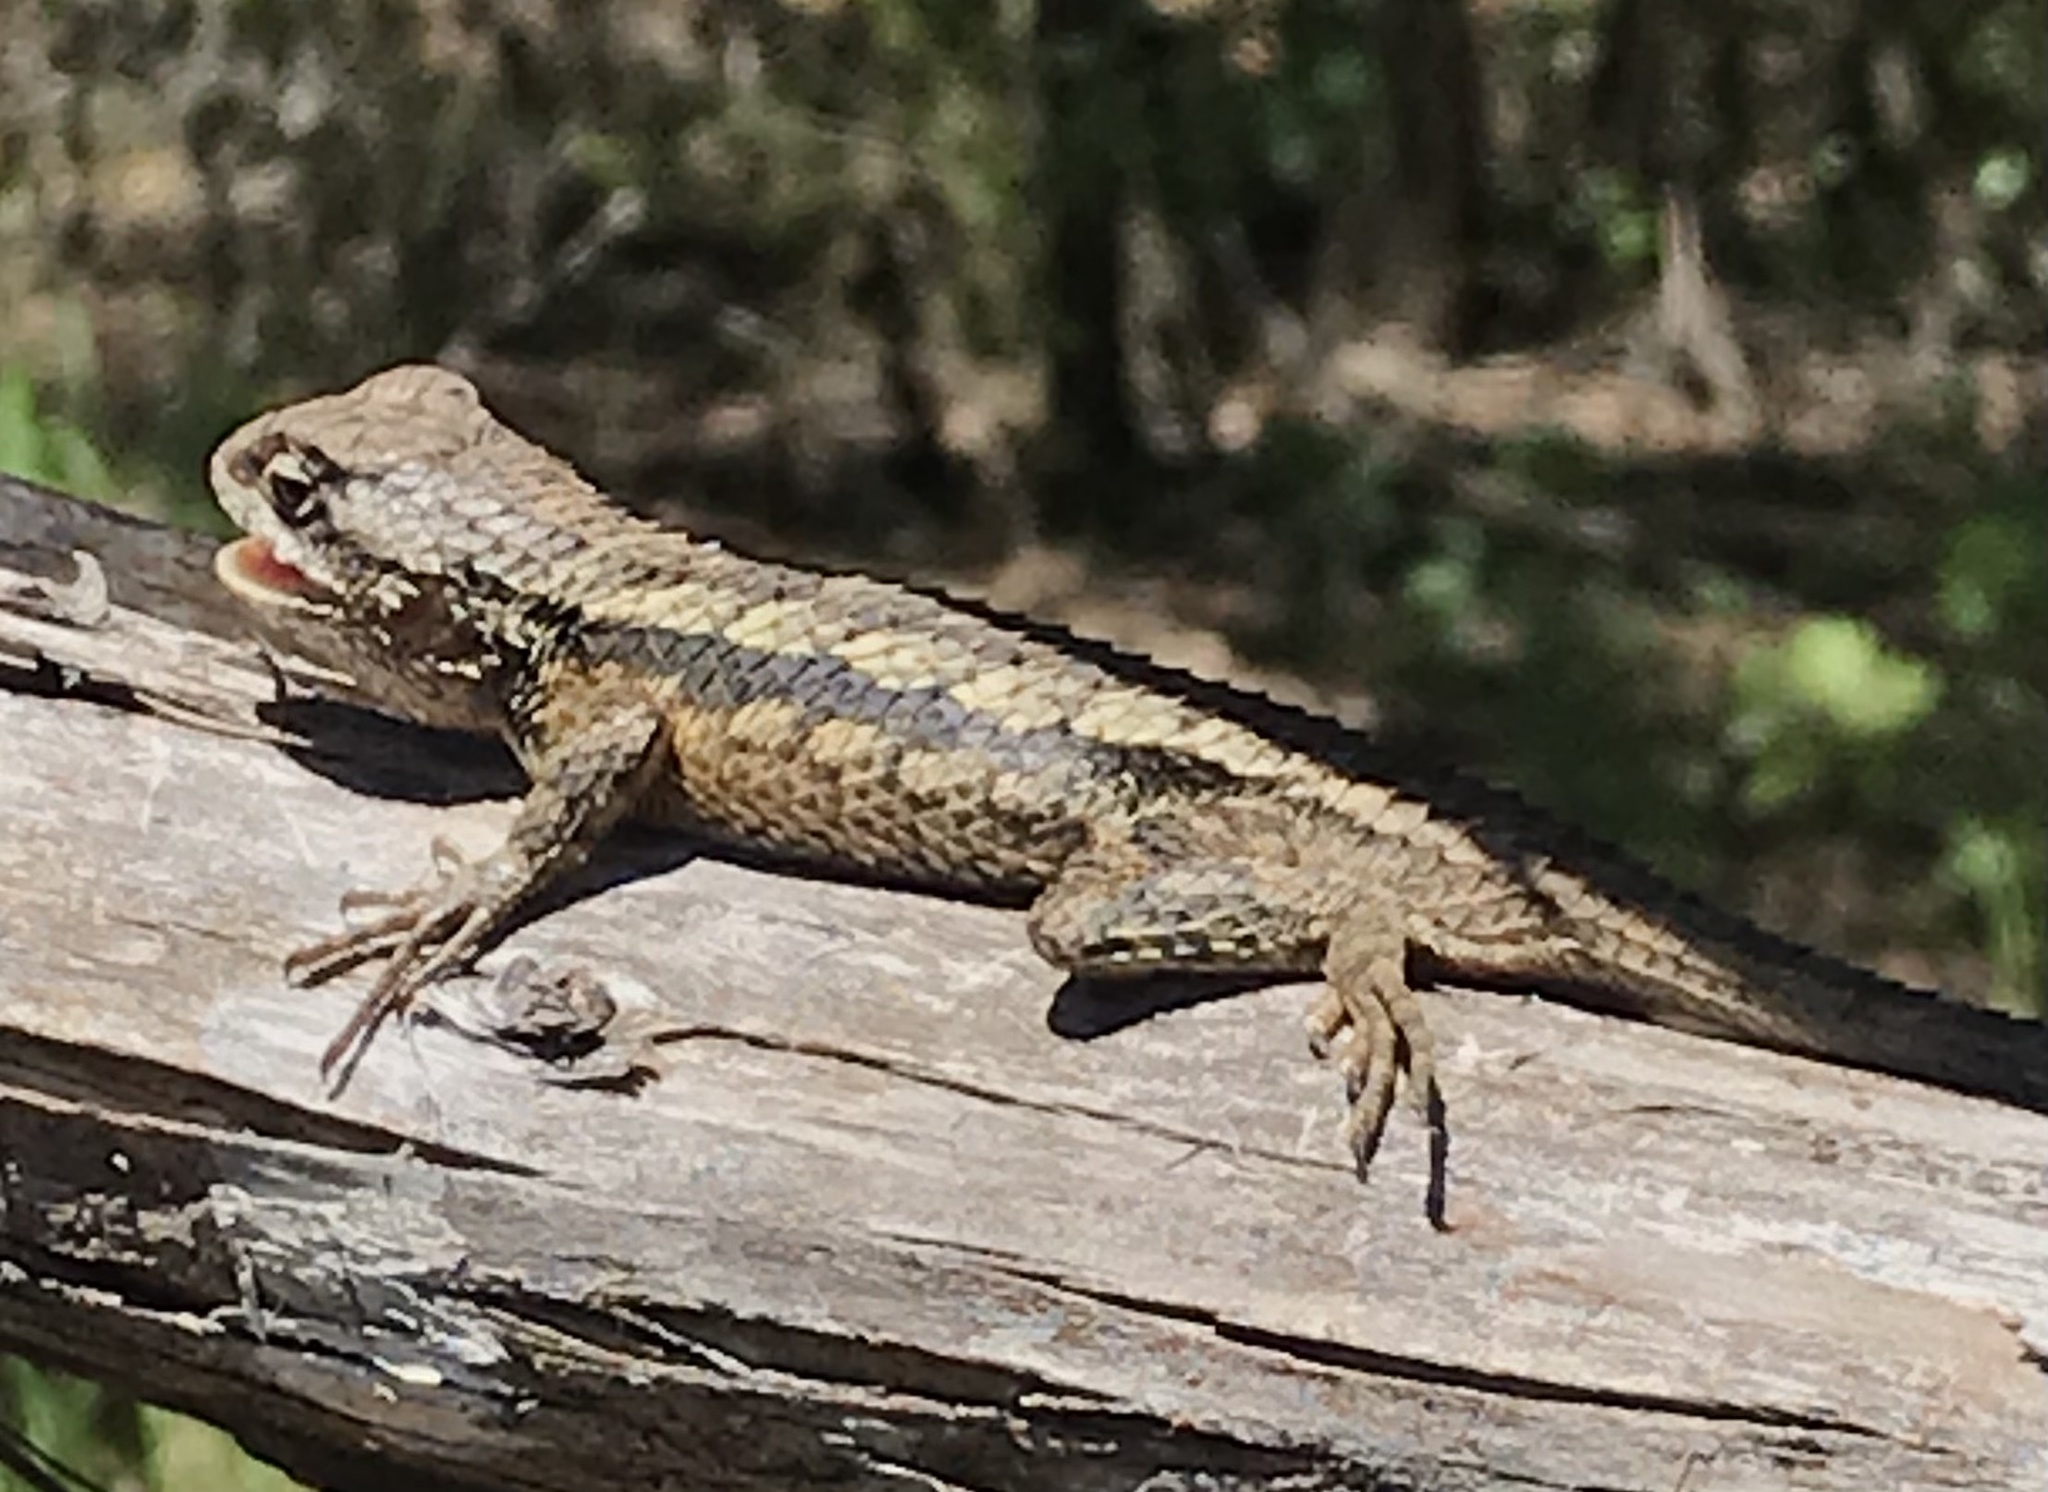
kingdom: Animalia
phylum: Chordata
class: Squamata
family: Phrynosomatidae
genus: Sceloporus
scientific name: Sceloporus olivaceus
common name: Texas spiny lizard
